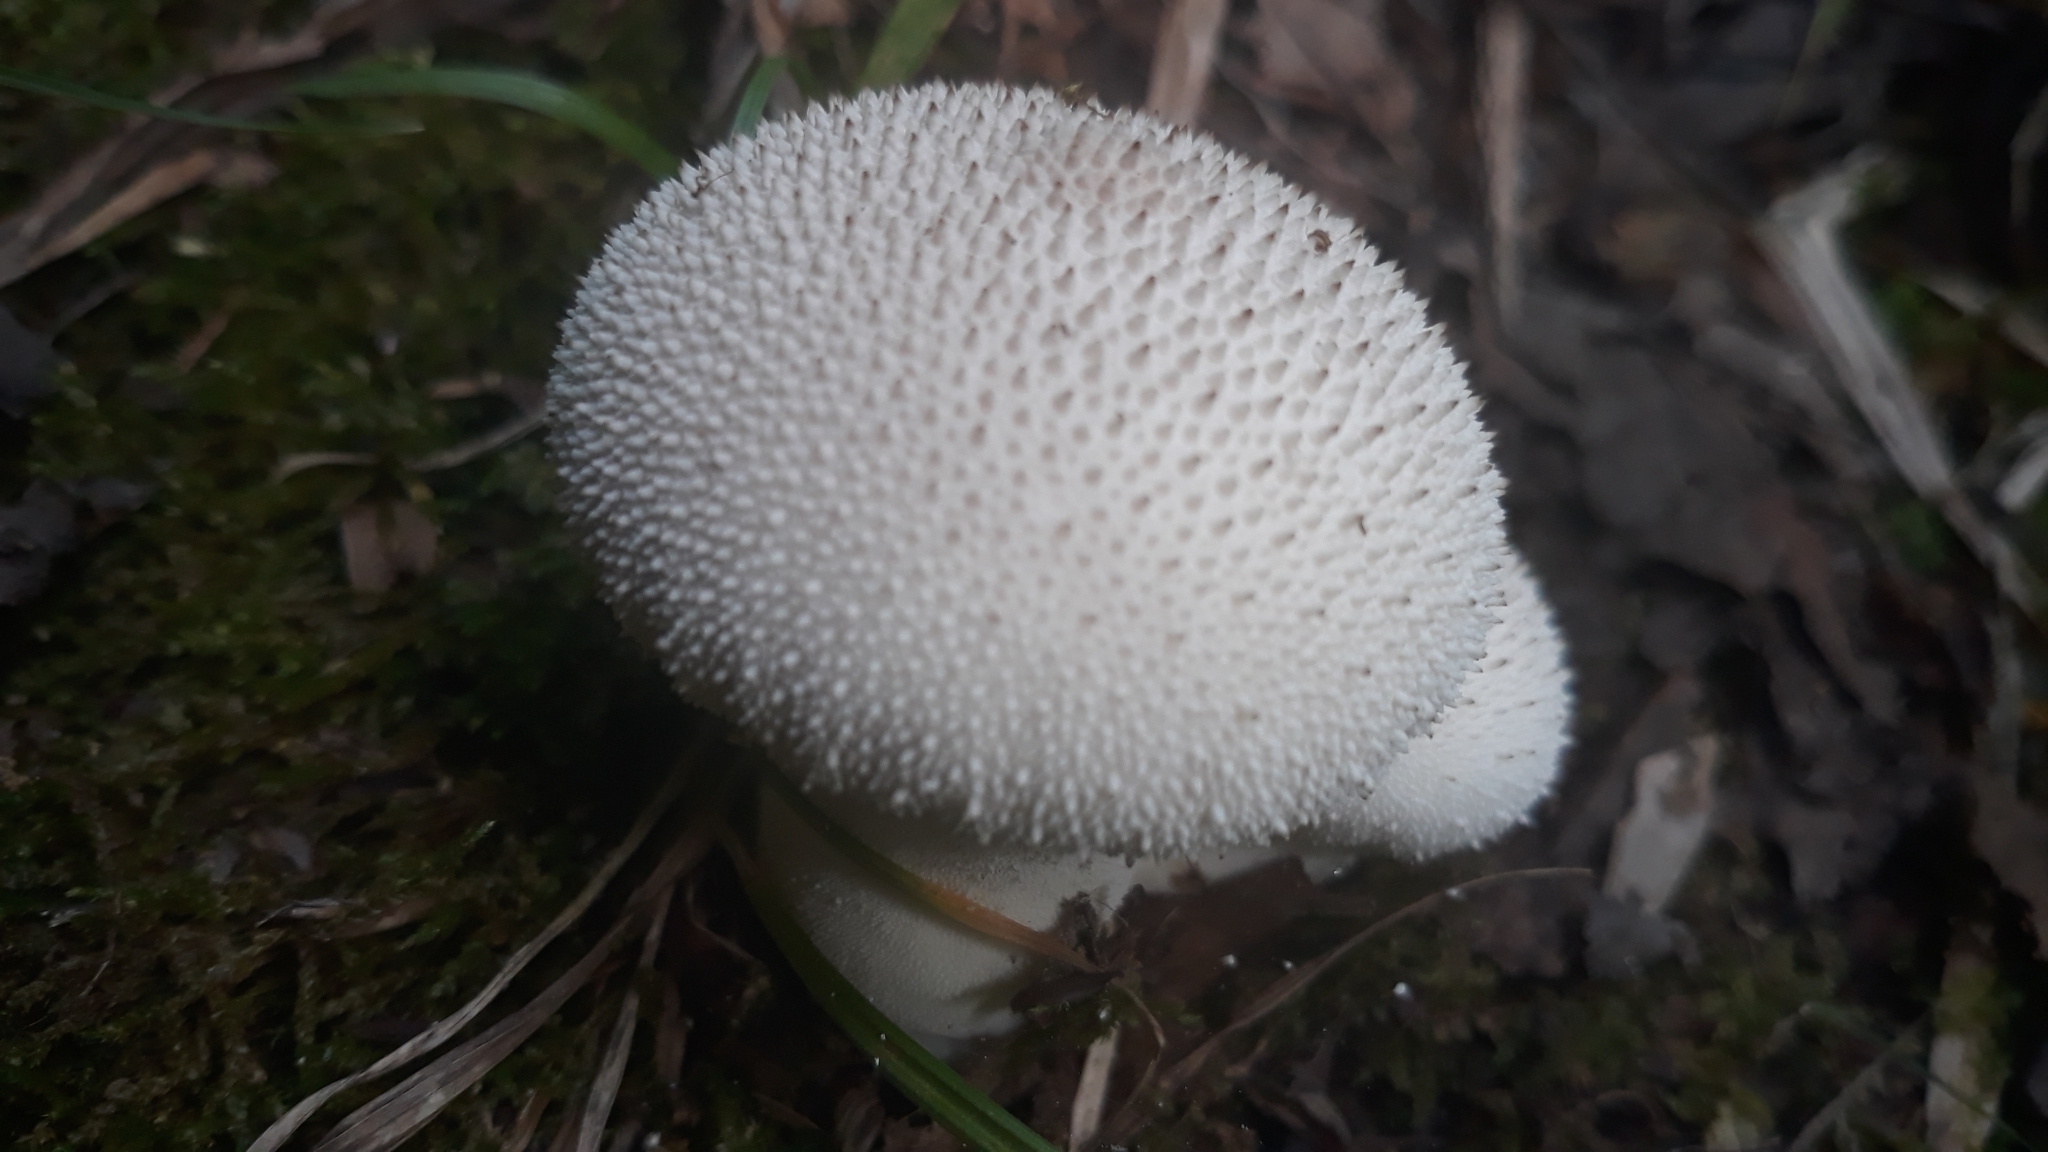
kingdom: Fungi
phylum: Basidiomycota
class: Agaricomycetes
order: Agaricales
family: Lycoperdaceae
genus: Lycoperdon
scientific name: Lycoperdon perlatum
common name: Common puffball
